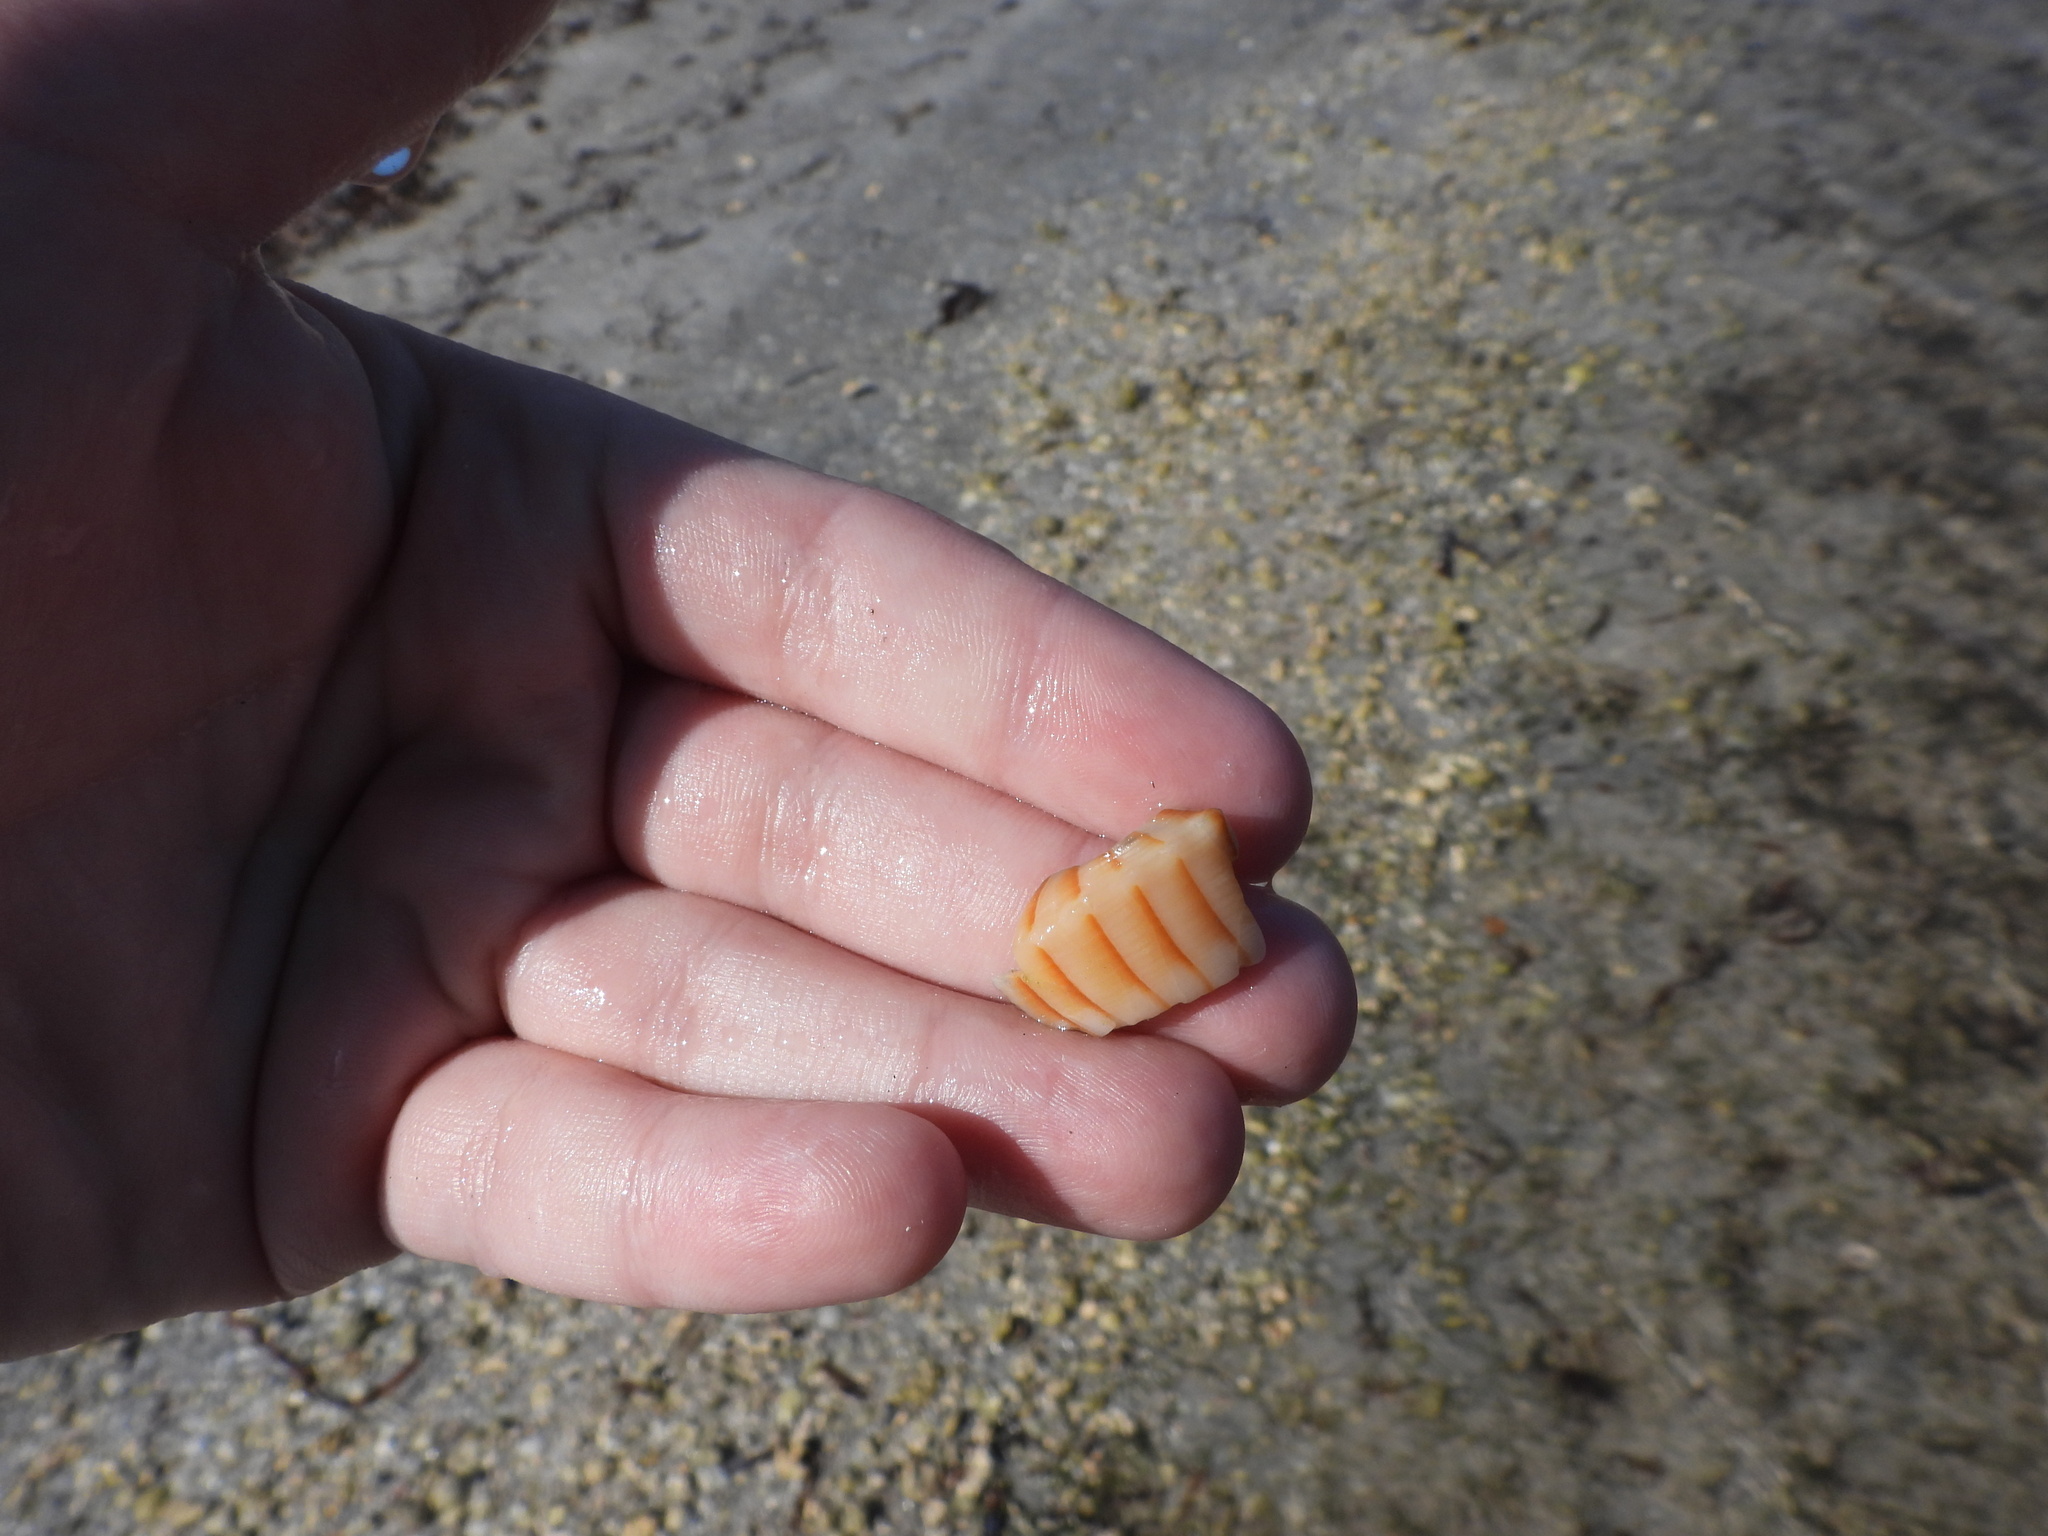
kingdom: Animalia
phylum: Mollusca
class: Gastropoda
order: Neogastropoda
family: Busyconidae
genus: Sinistrofulgur
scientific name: Sinistrofulgur sinistrum
